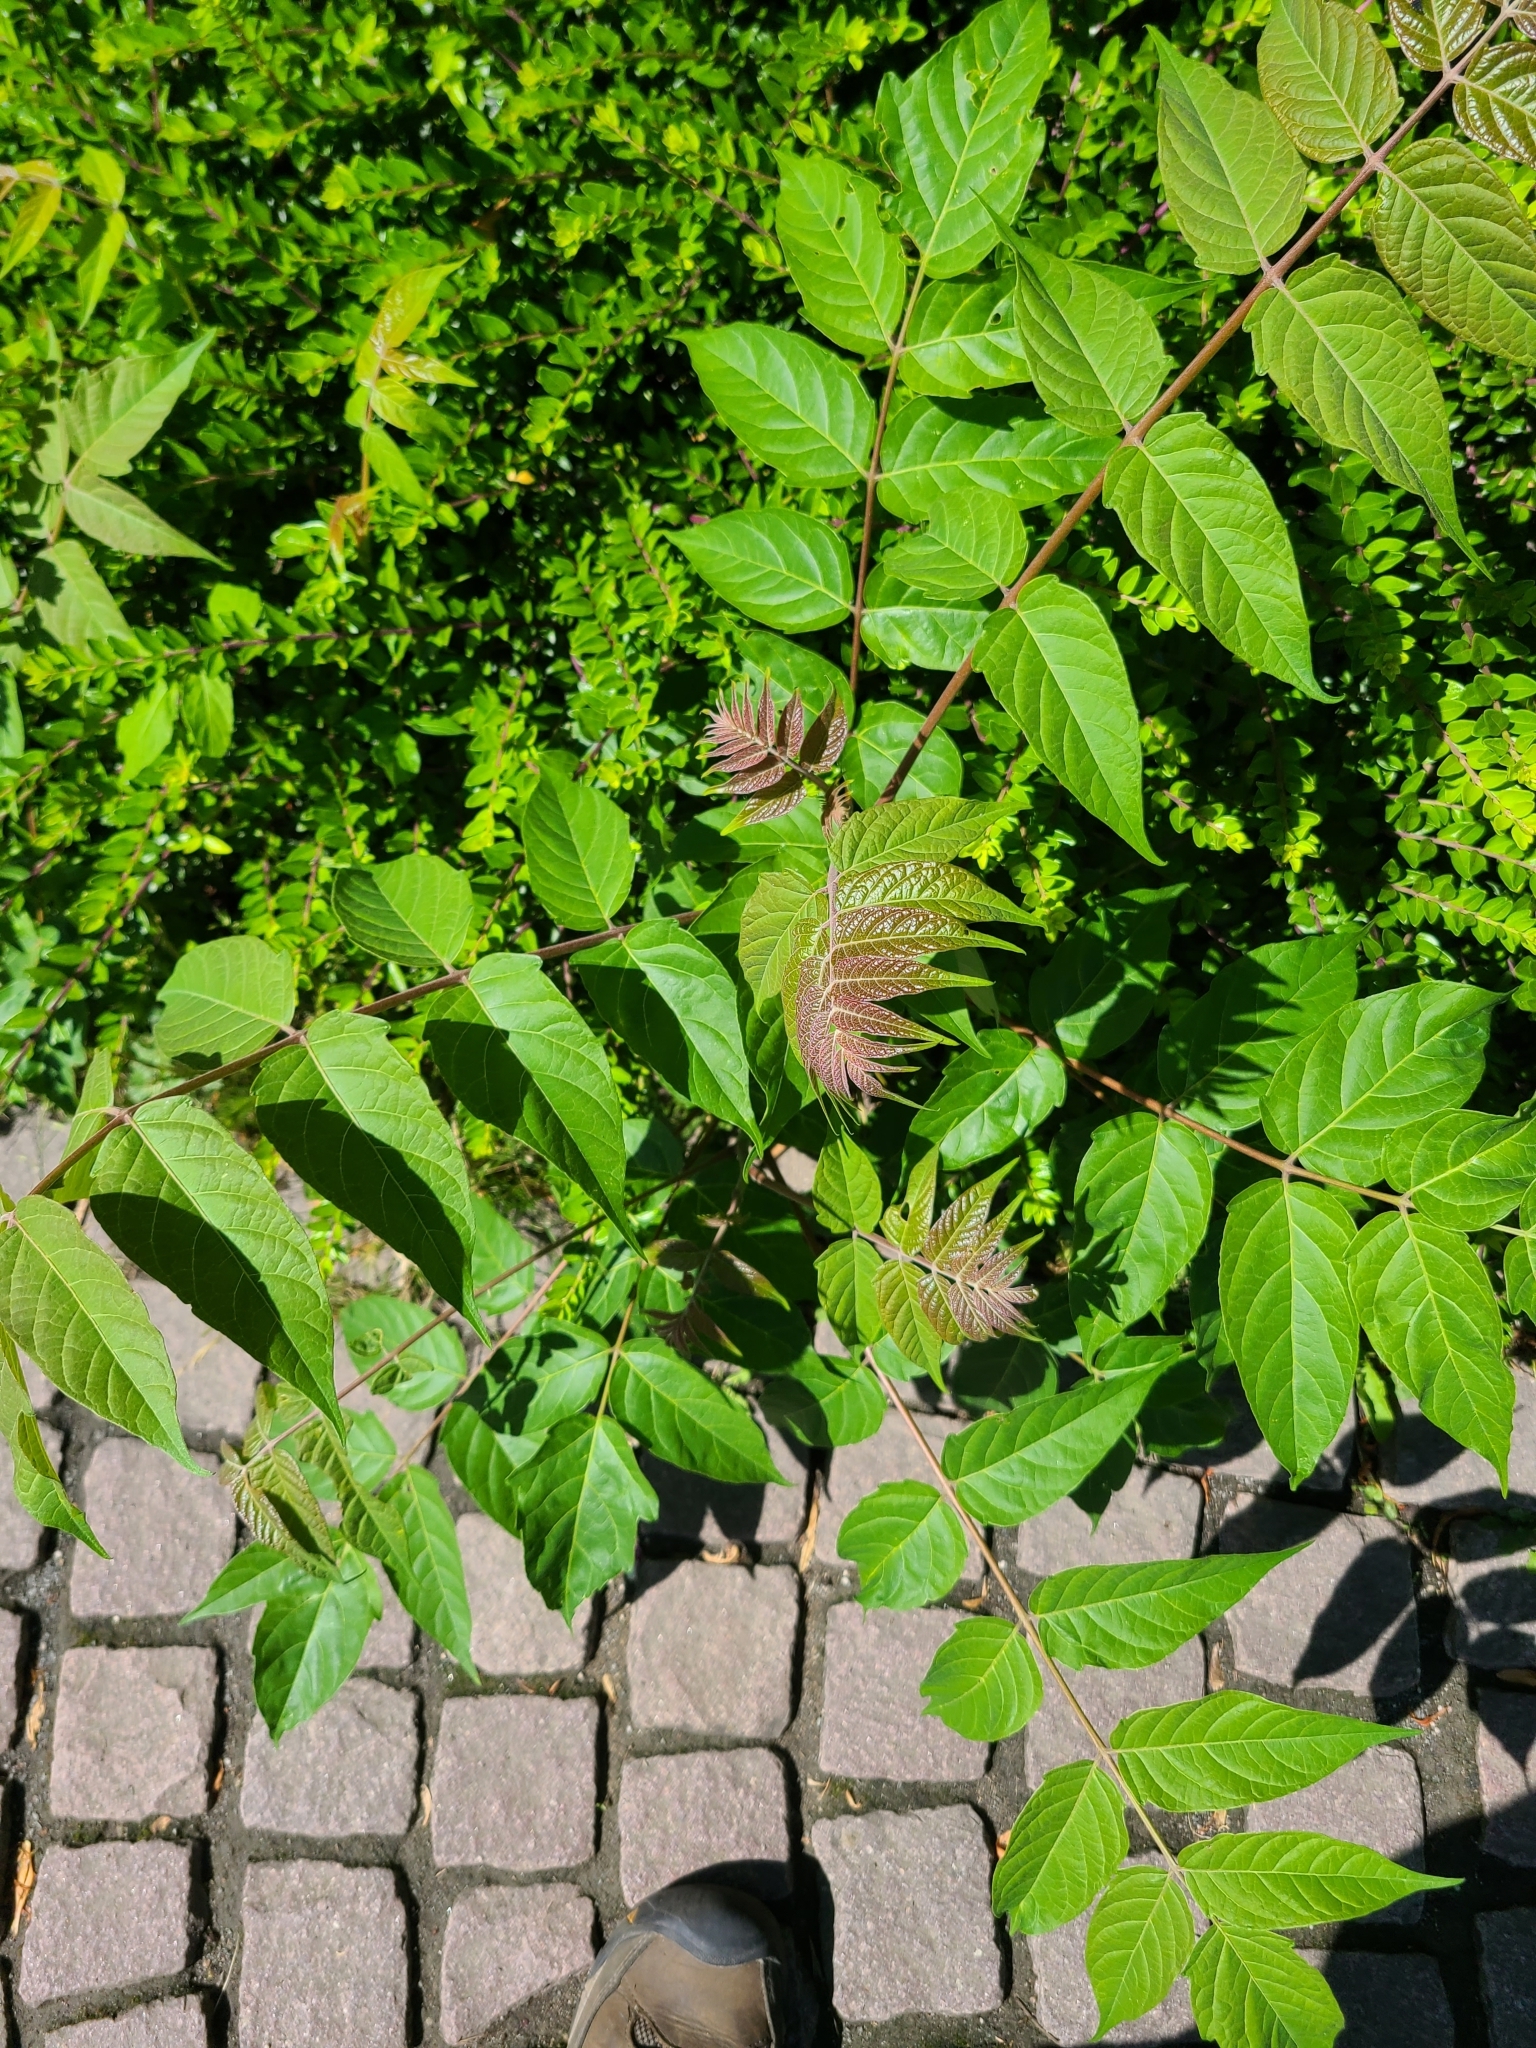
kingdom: Plantae
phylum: Tracheophyta
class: Magnoliopsida
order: Sapindales
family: Simaroubaceae
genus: Ailanthus
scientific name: Ailanthus altissima
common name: Tree-of-heaven
